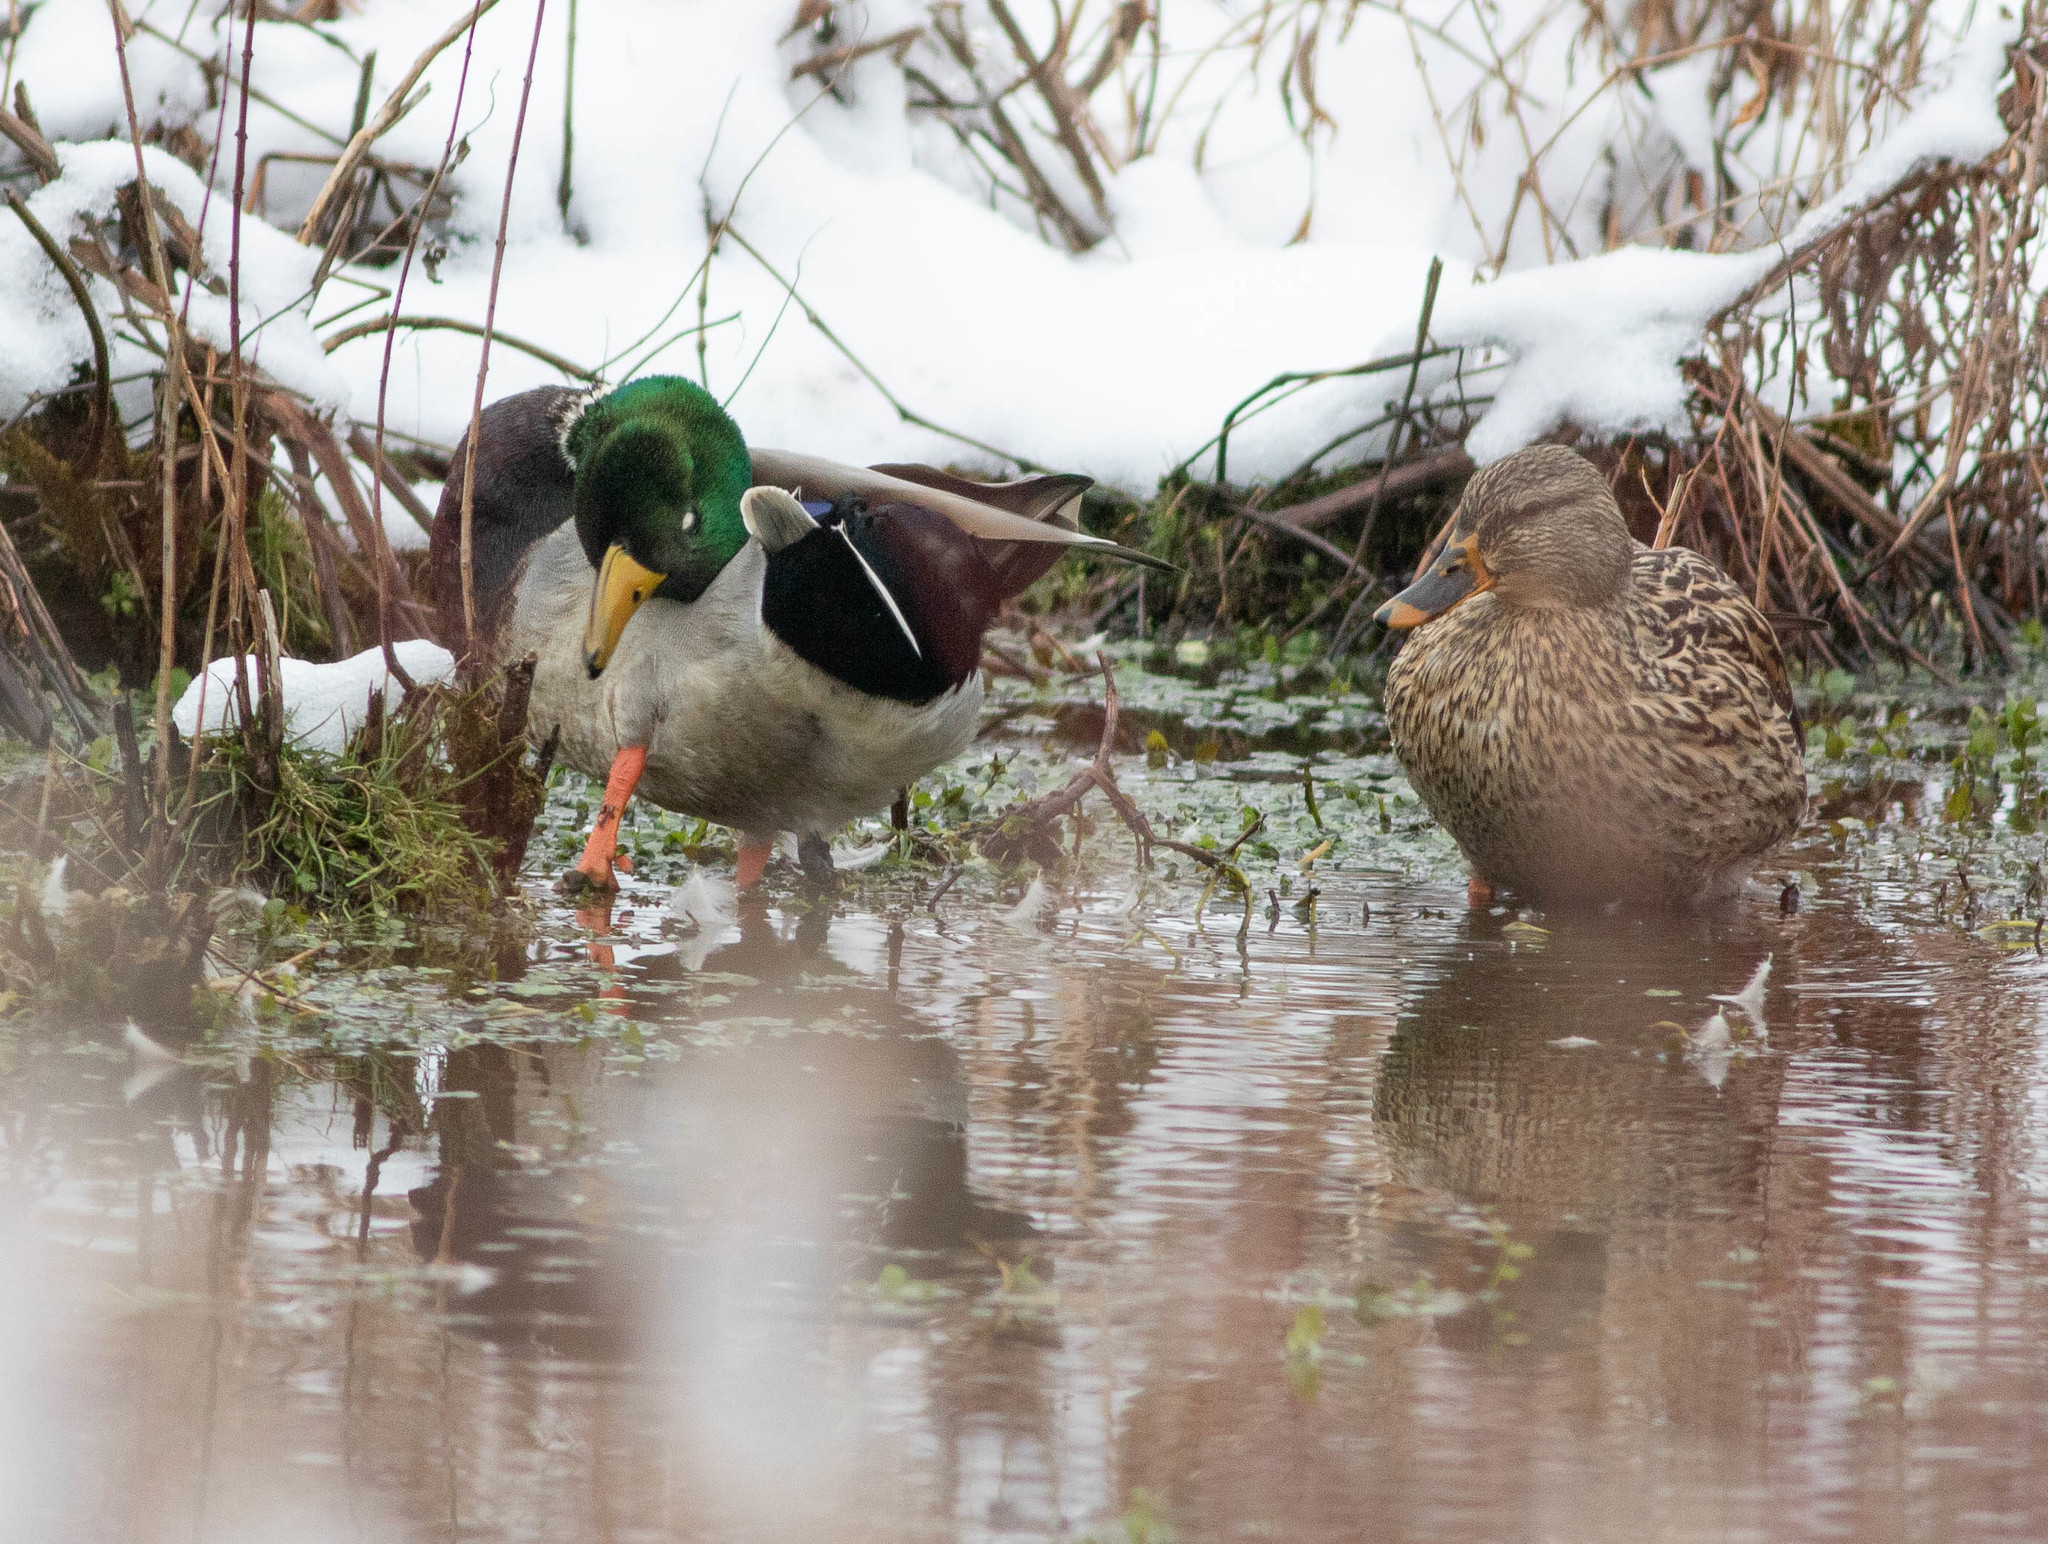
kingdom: Animalia
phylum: Chordata
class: Aves
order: Anseriformes
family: Anatidae
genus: Anas
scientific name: Anas platyrhynchos
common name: Mallard
